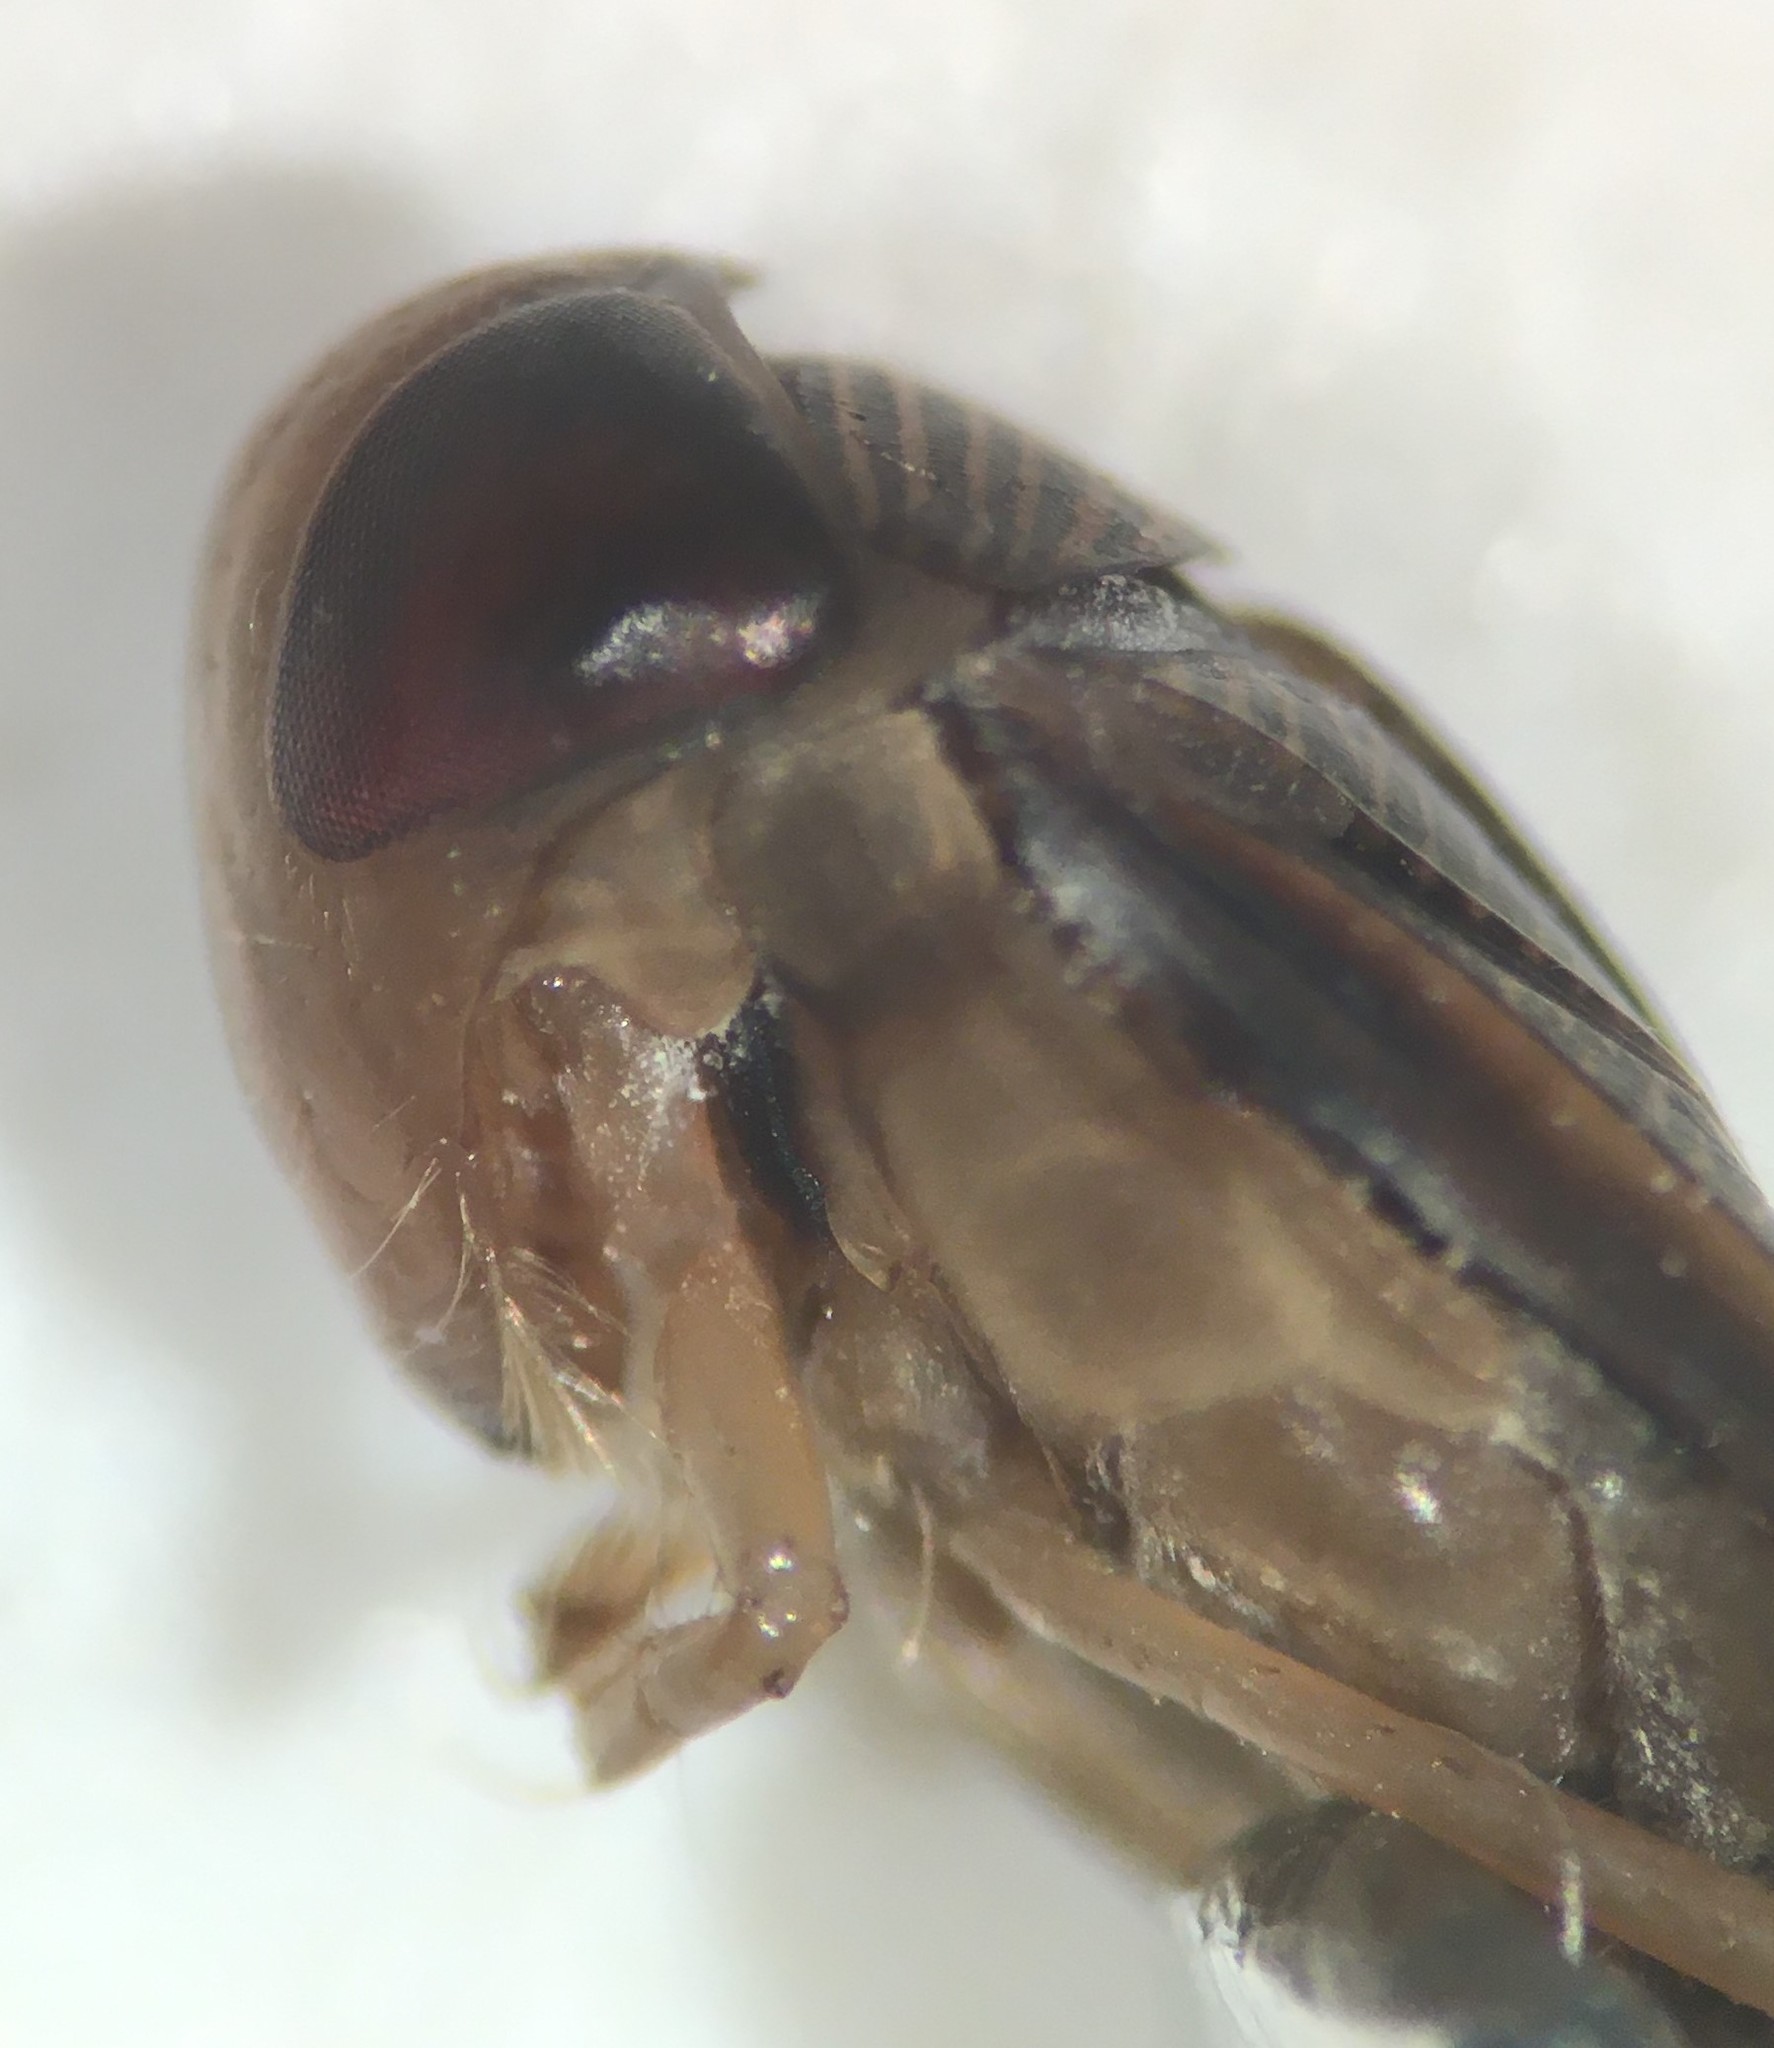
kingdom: Animalia
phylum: Arthropoda
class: Insecta
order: Hemiptera
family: Corixidae
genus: Hesperocorixa
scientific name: Hesperocorixa minor
